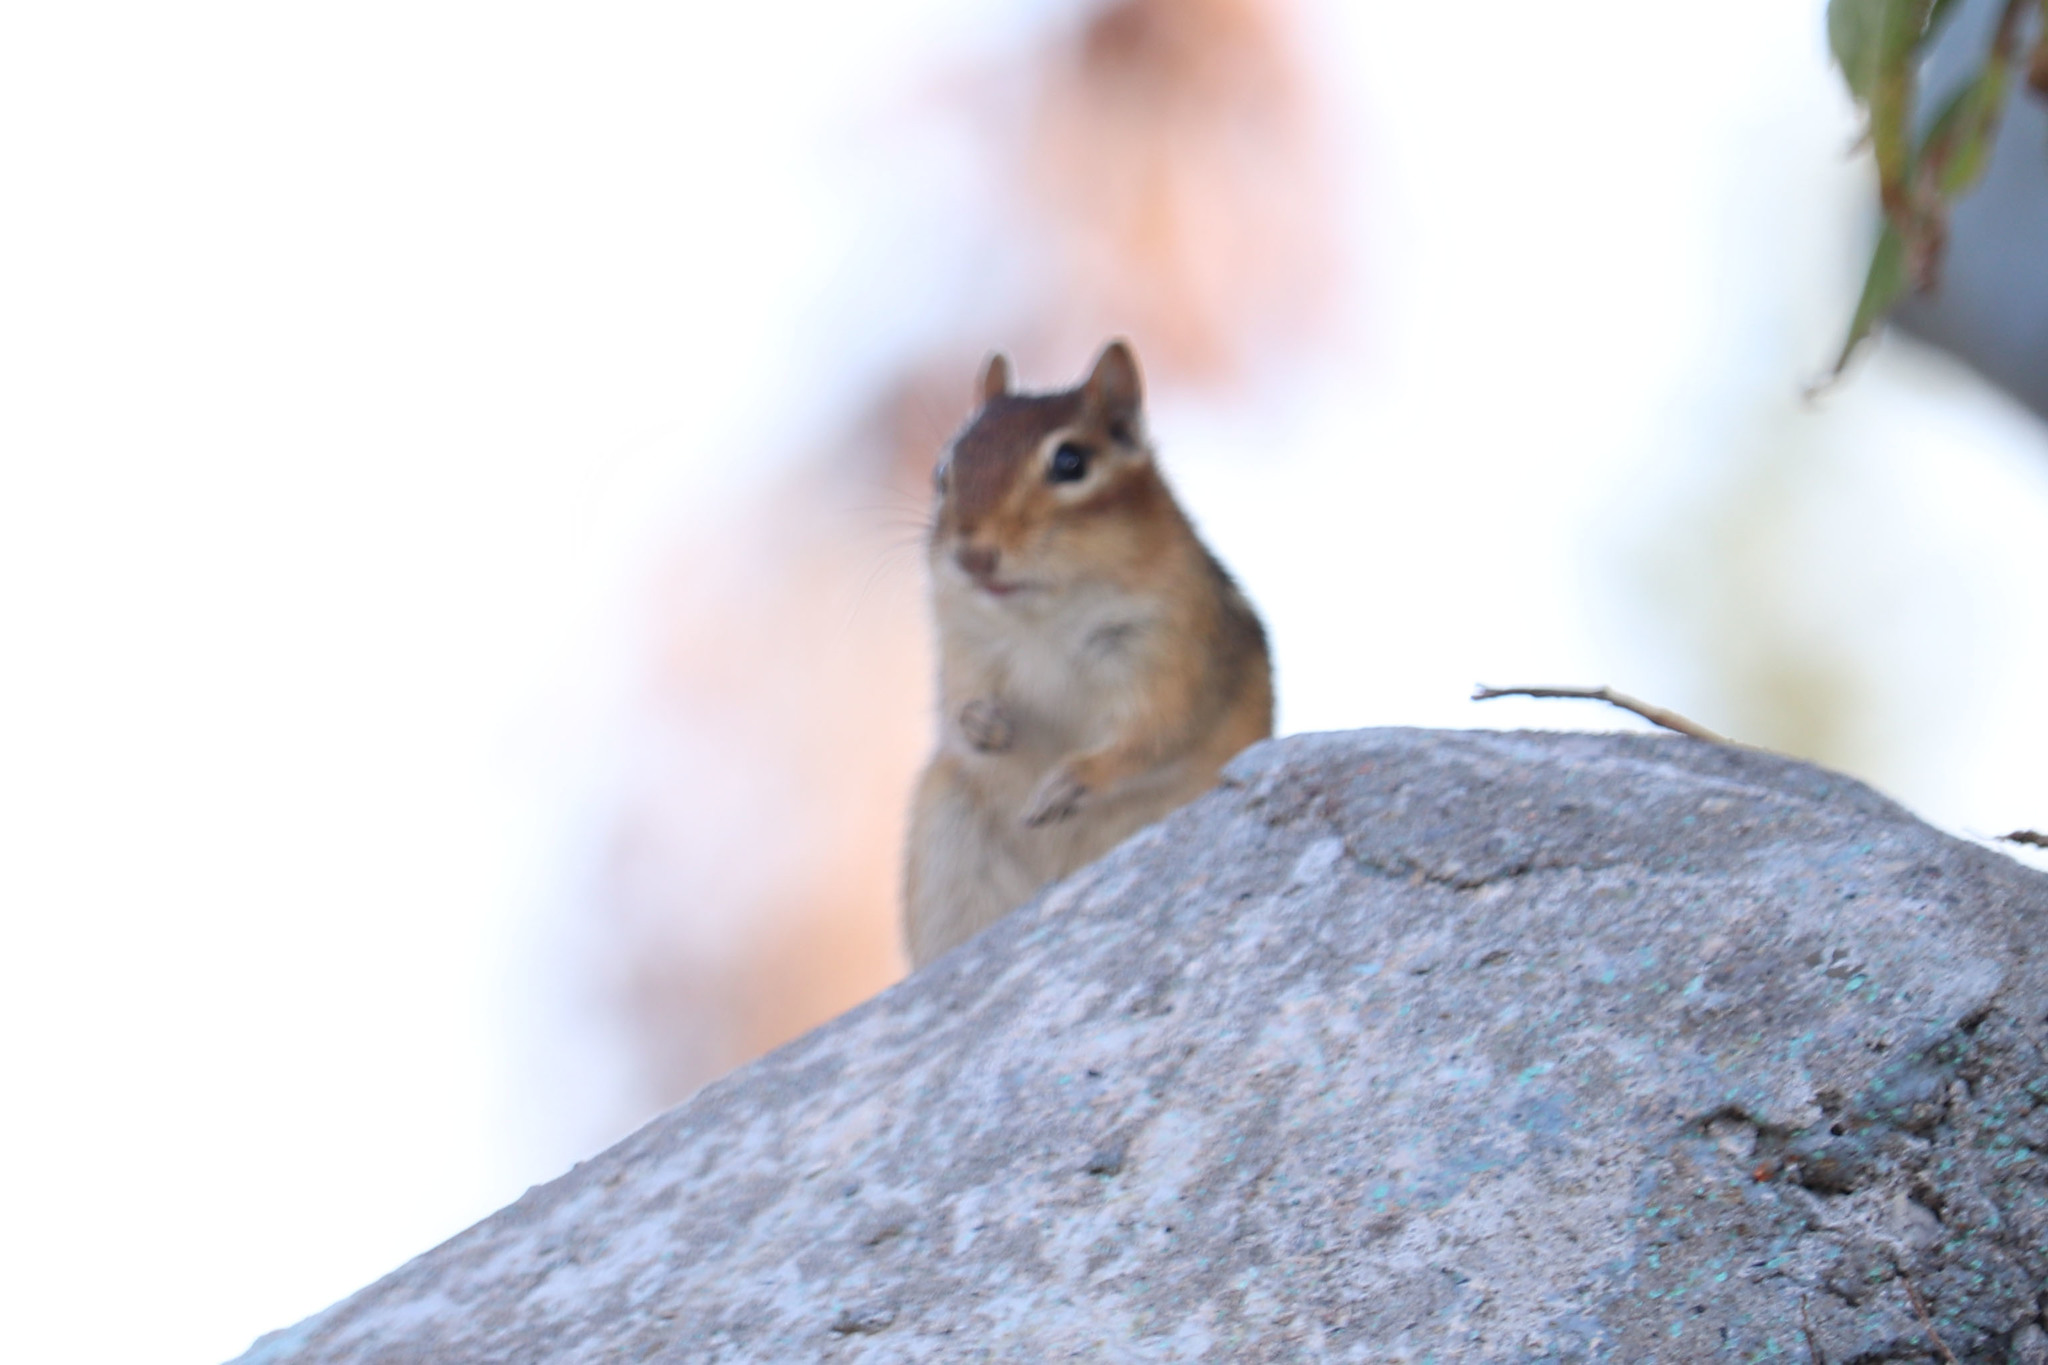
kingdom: Animalia
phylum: Chordata
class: Mammalia
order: Rodentia
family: Sciuridae
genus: Tamias
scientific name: Tamias striatus
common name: Eastern chipmunk
